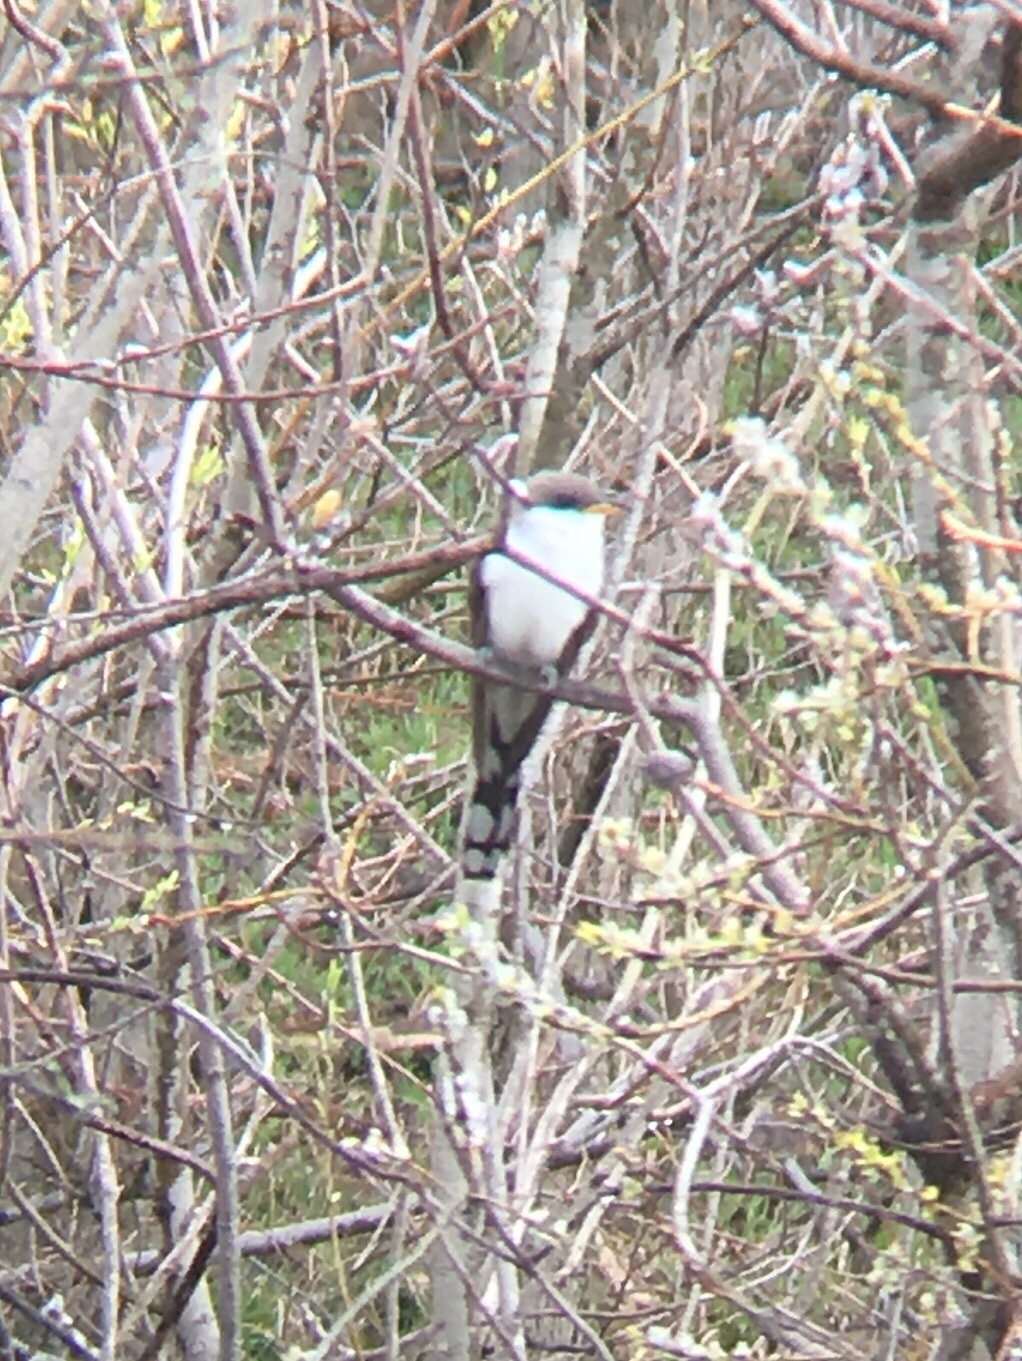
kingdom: Animalia
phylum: Chordata
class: Aves
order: Cuculiformes
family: Cuculidae
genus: Coccyzus
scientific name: Coccyzus americanus
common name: Yellow-billed cuckoo
